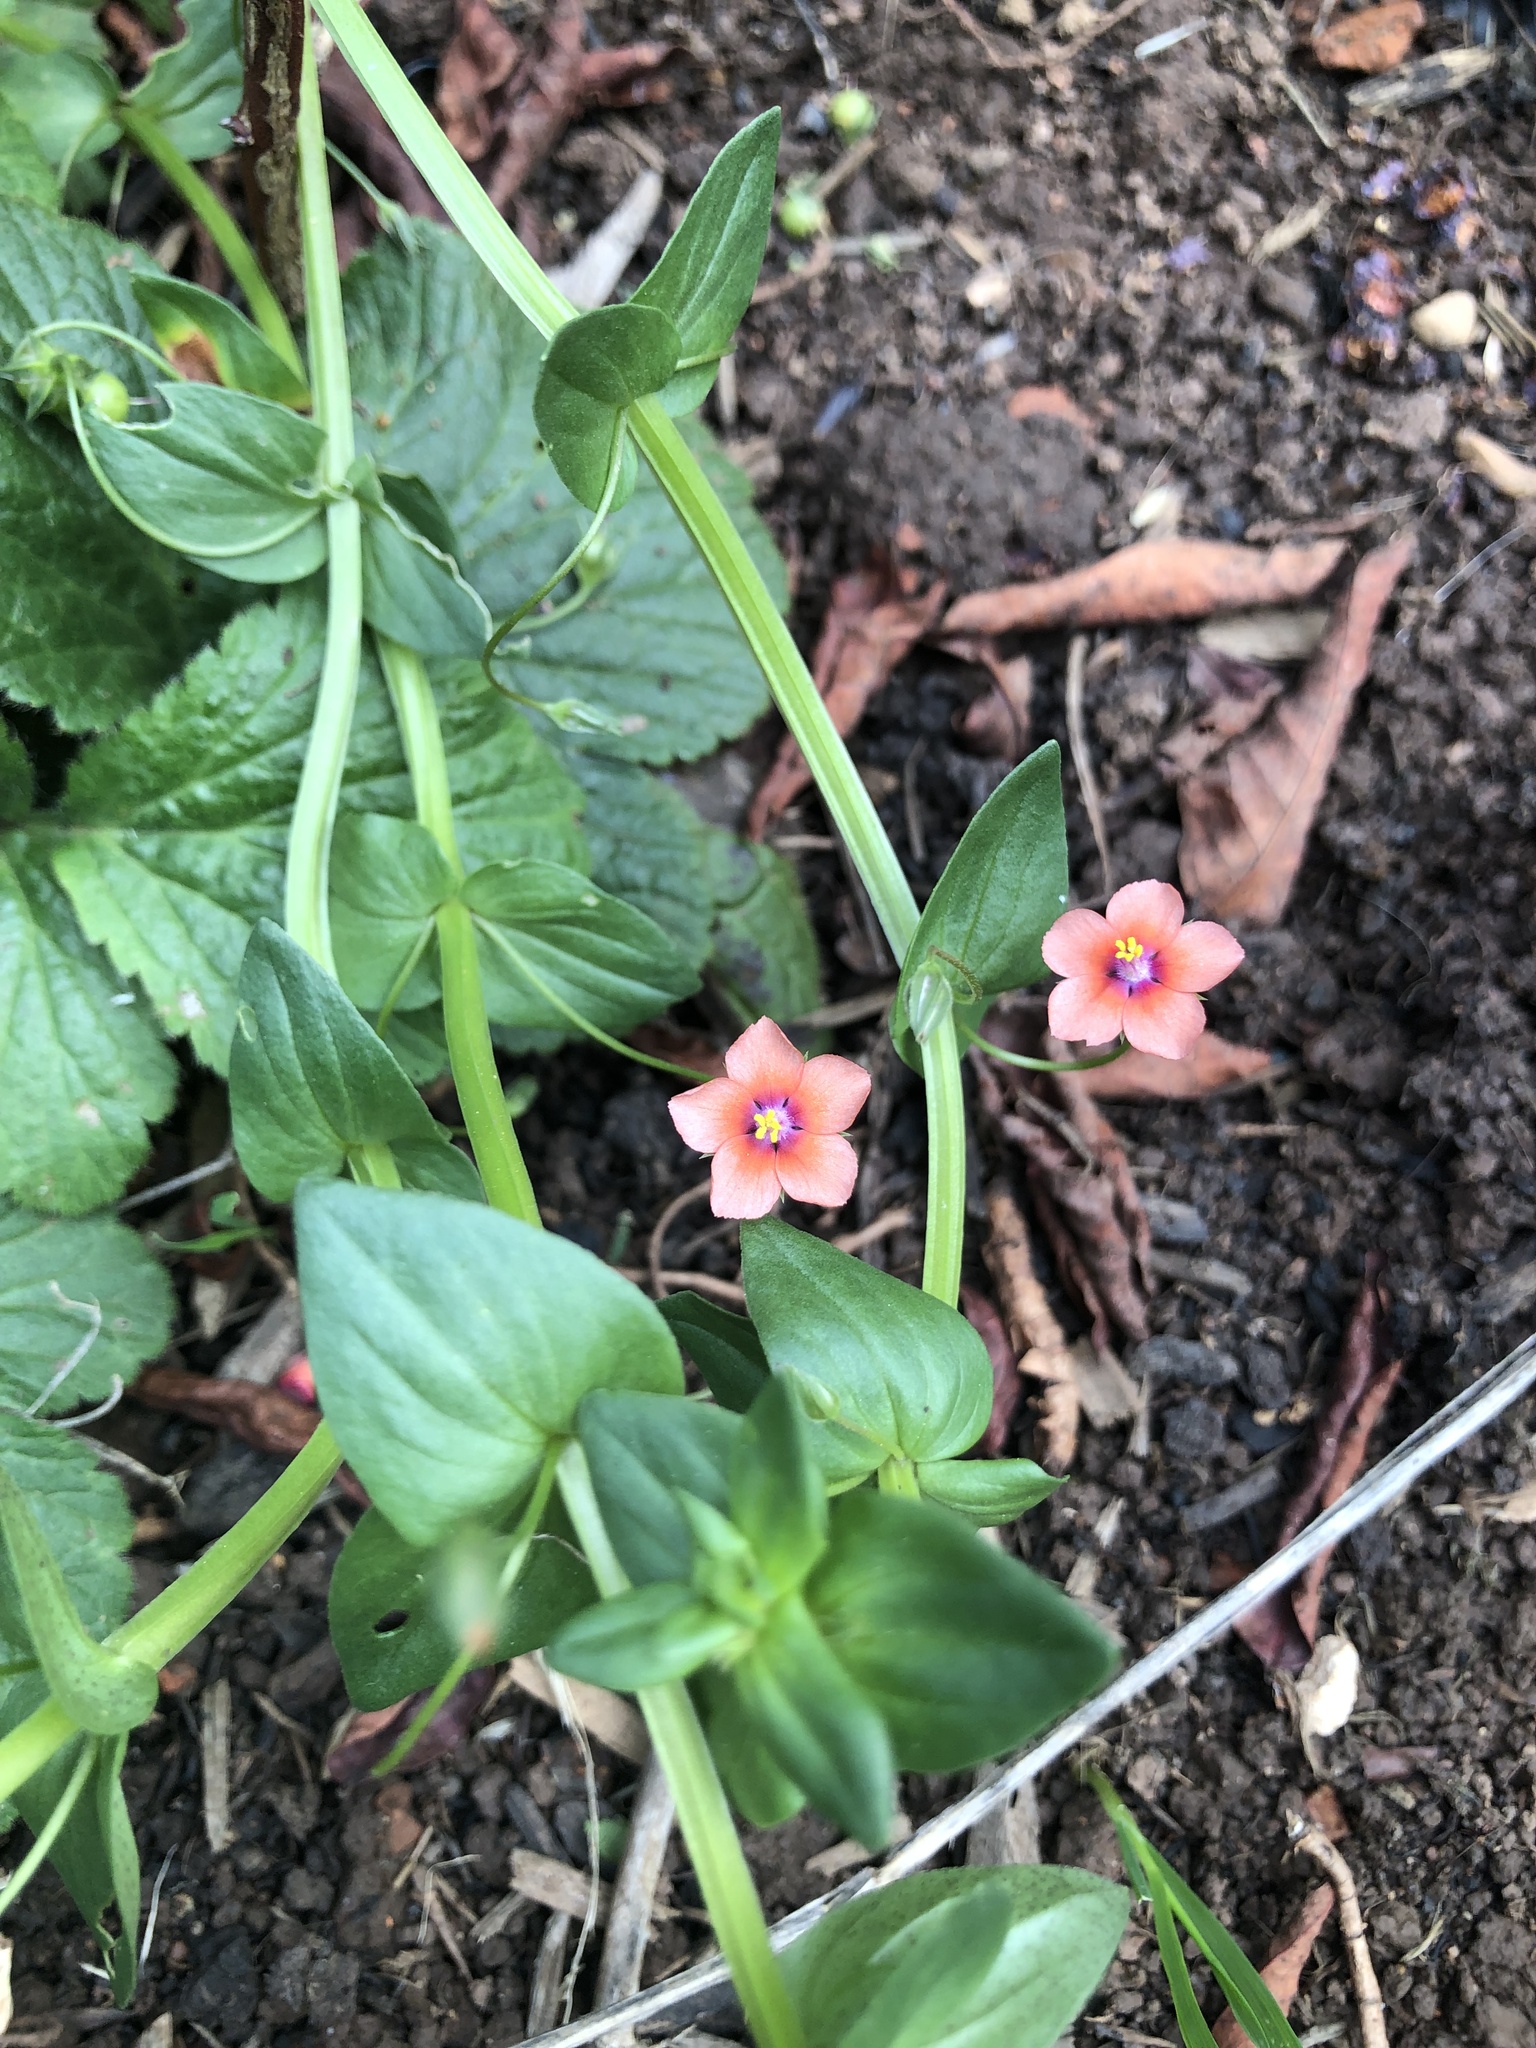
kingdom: Plantae
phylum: Tracheophyta
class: Magnoliopsida
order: Ericales
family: Primulaceae
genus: Lysimachia
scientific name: Lysimachia arvensis
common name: Scarlet pimpernel
